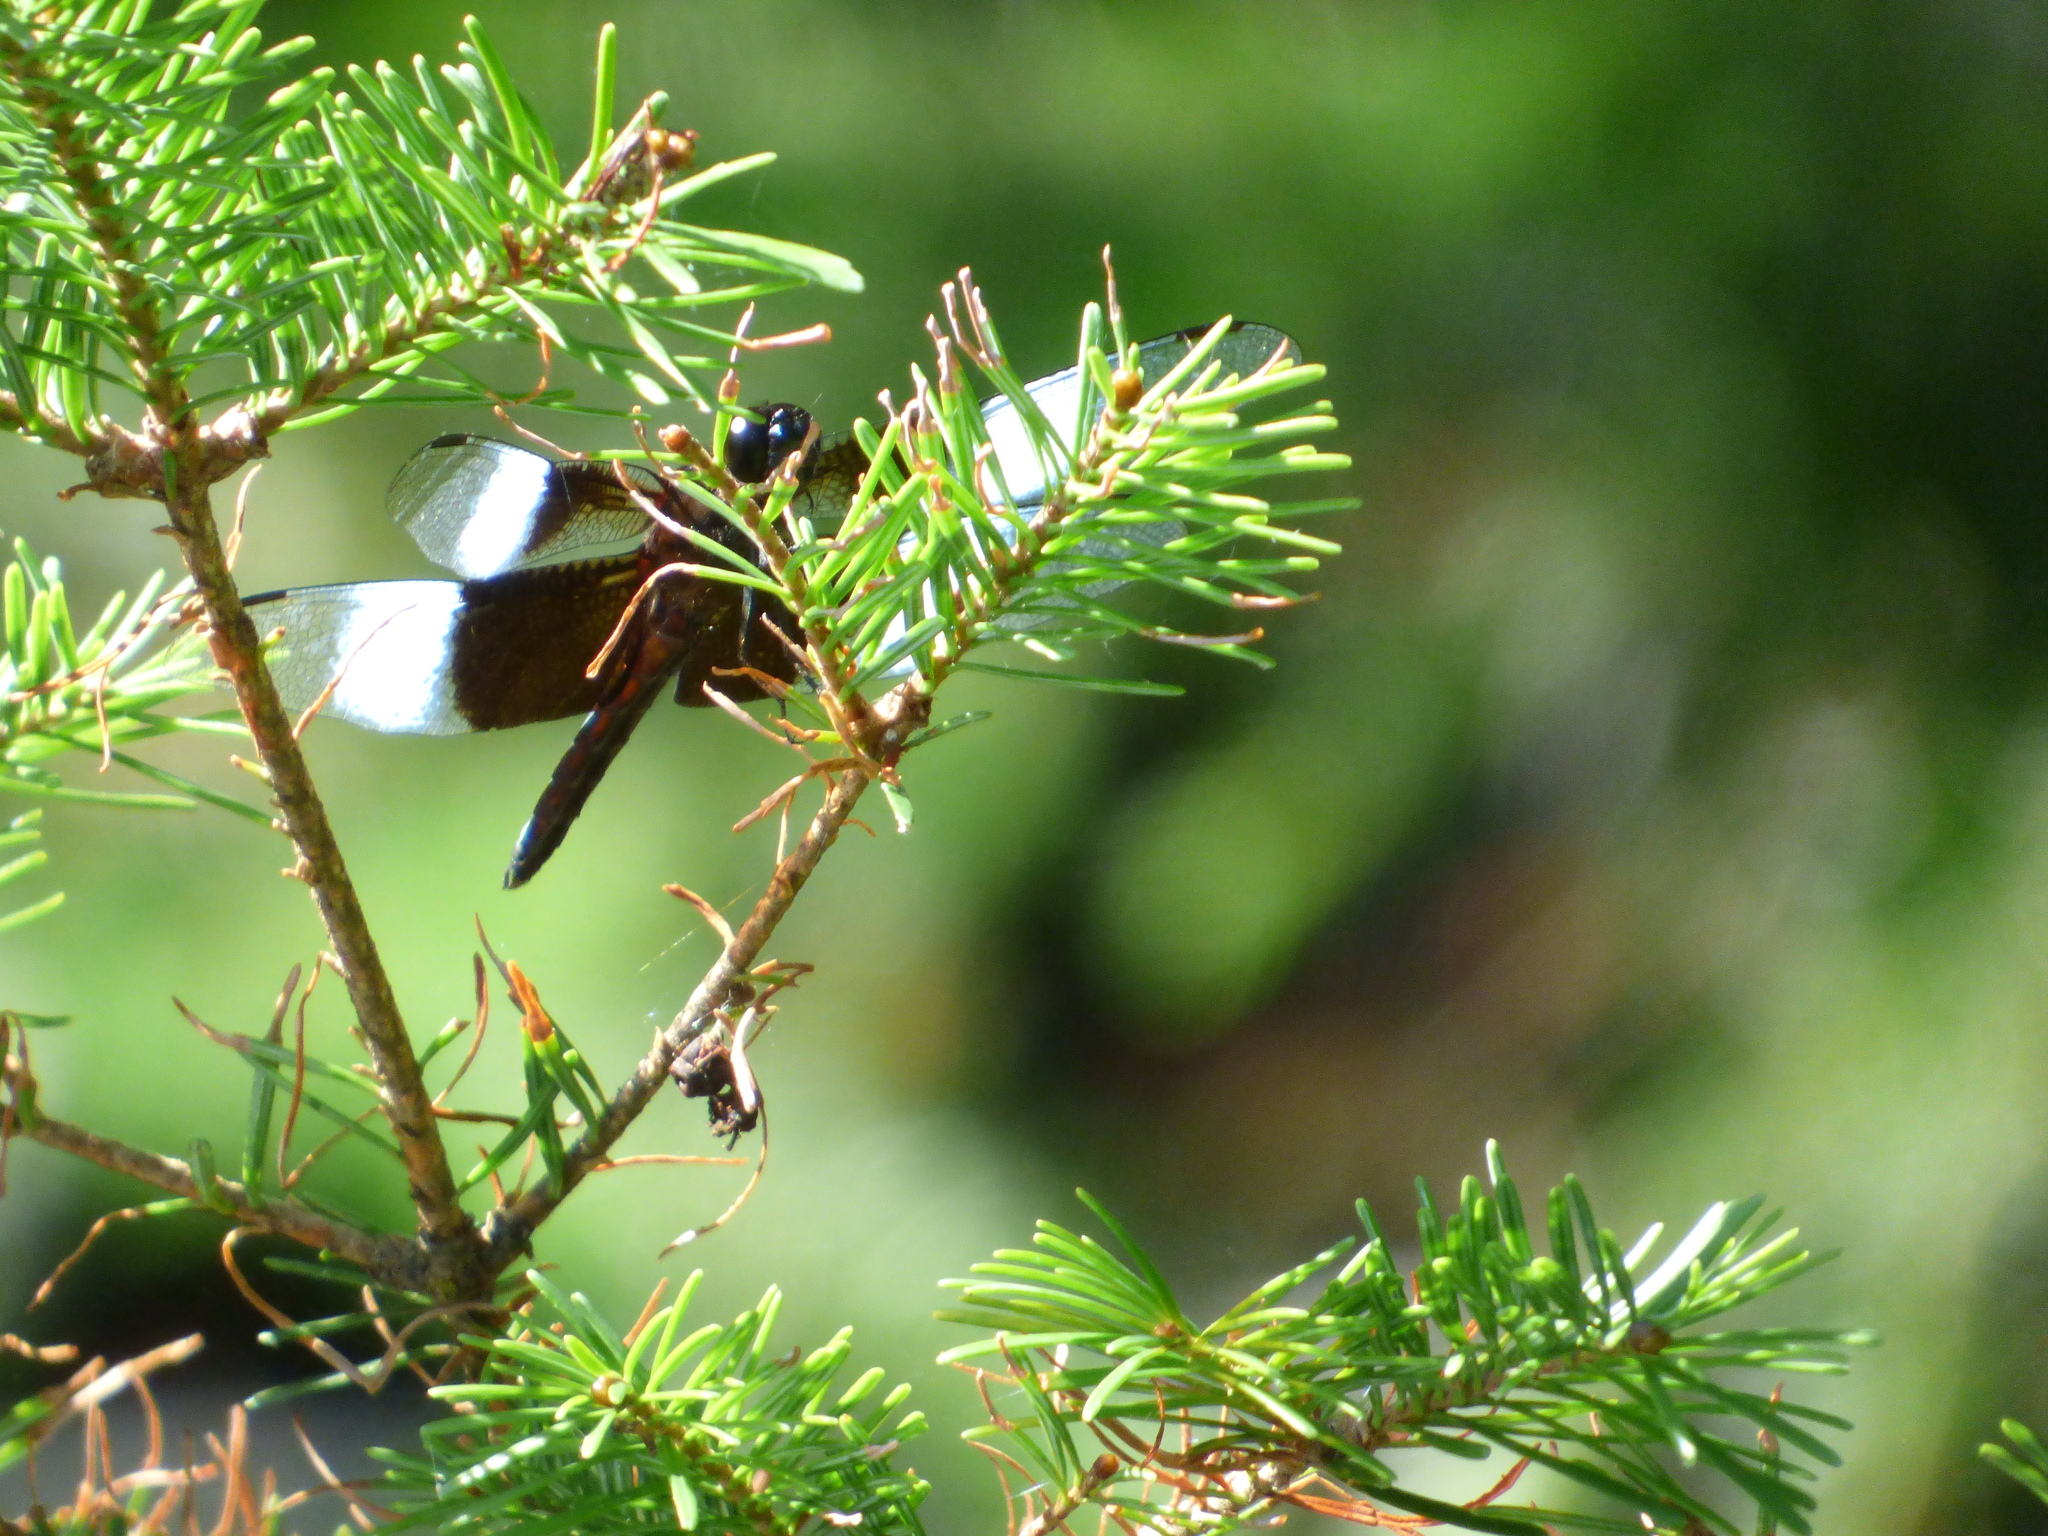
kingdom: Animalia
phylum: Arthropoda
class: Insecta
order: Odonata
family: Libellulidae
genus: Libellula
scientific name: Libellula luctuosa
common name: Widow skimmer
